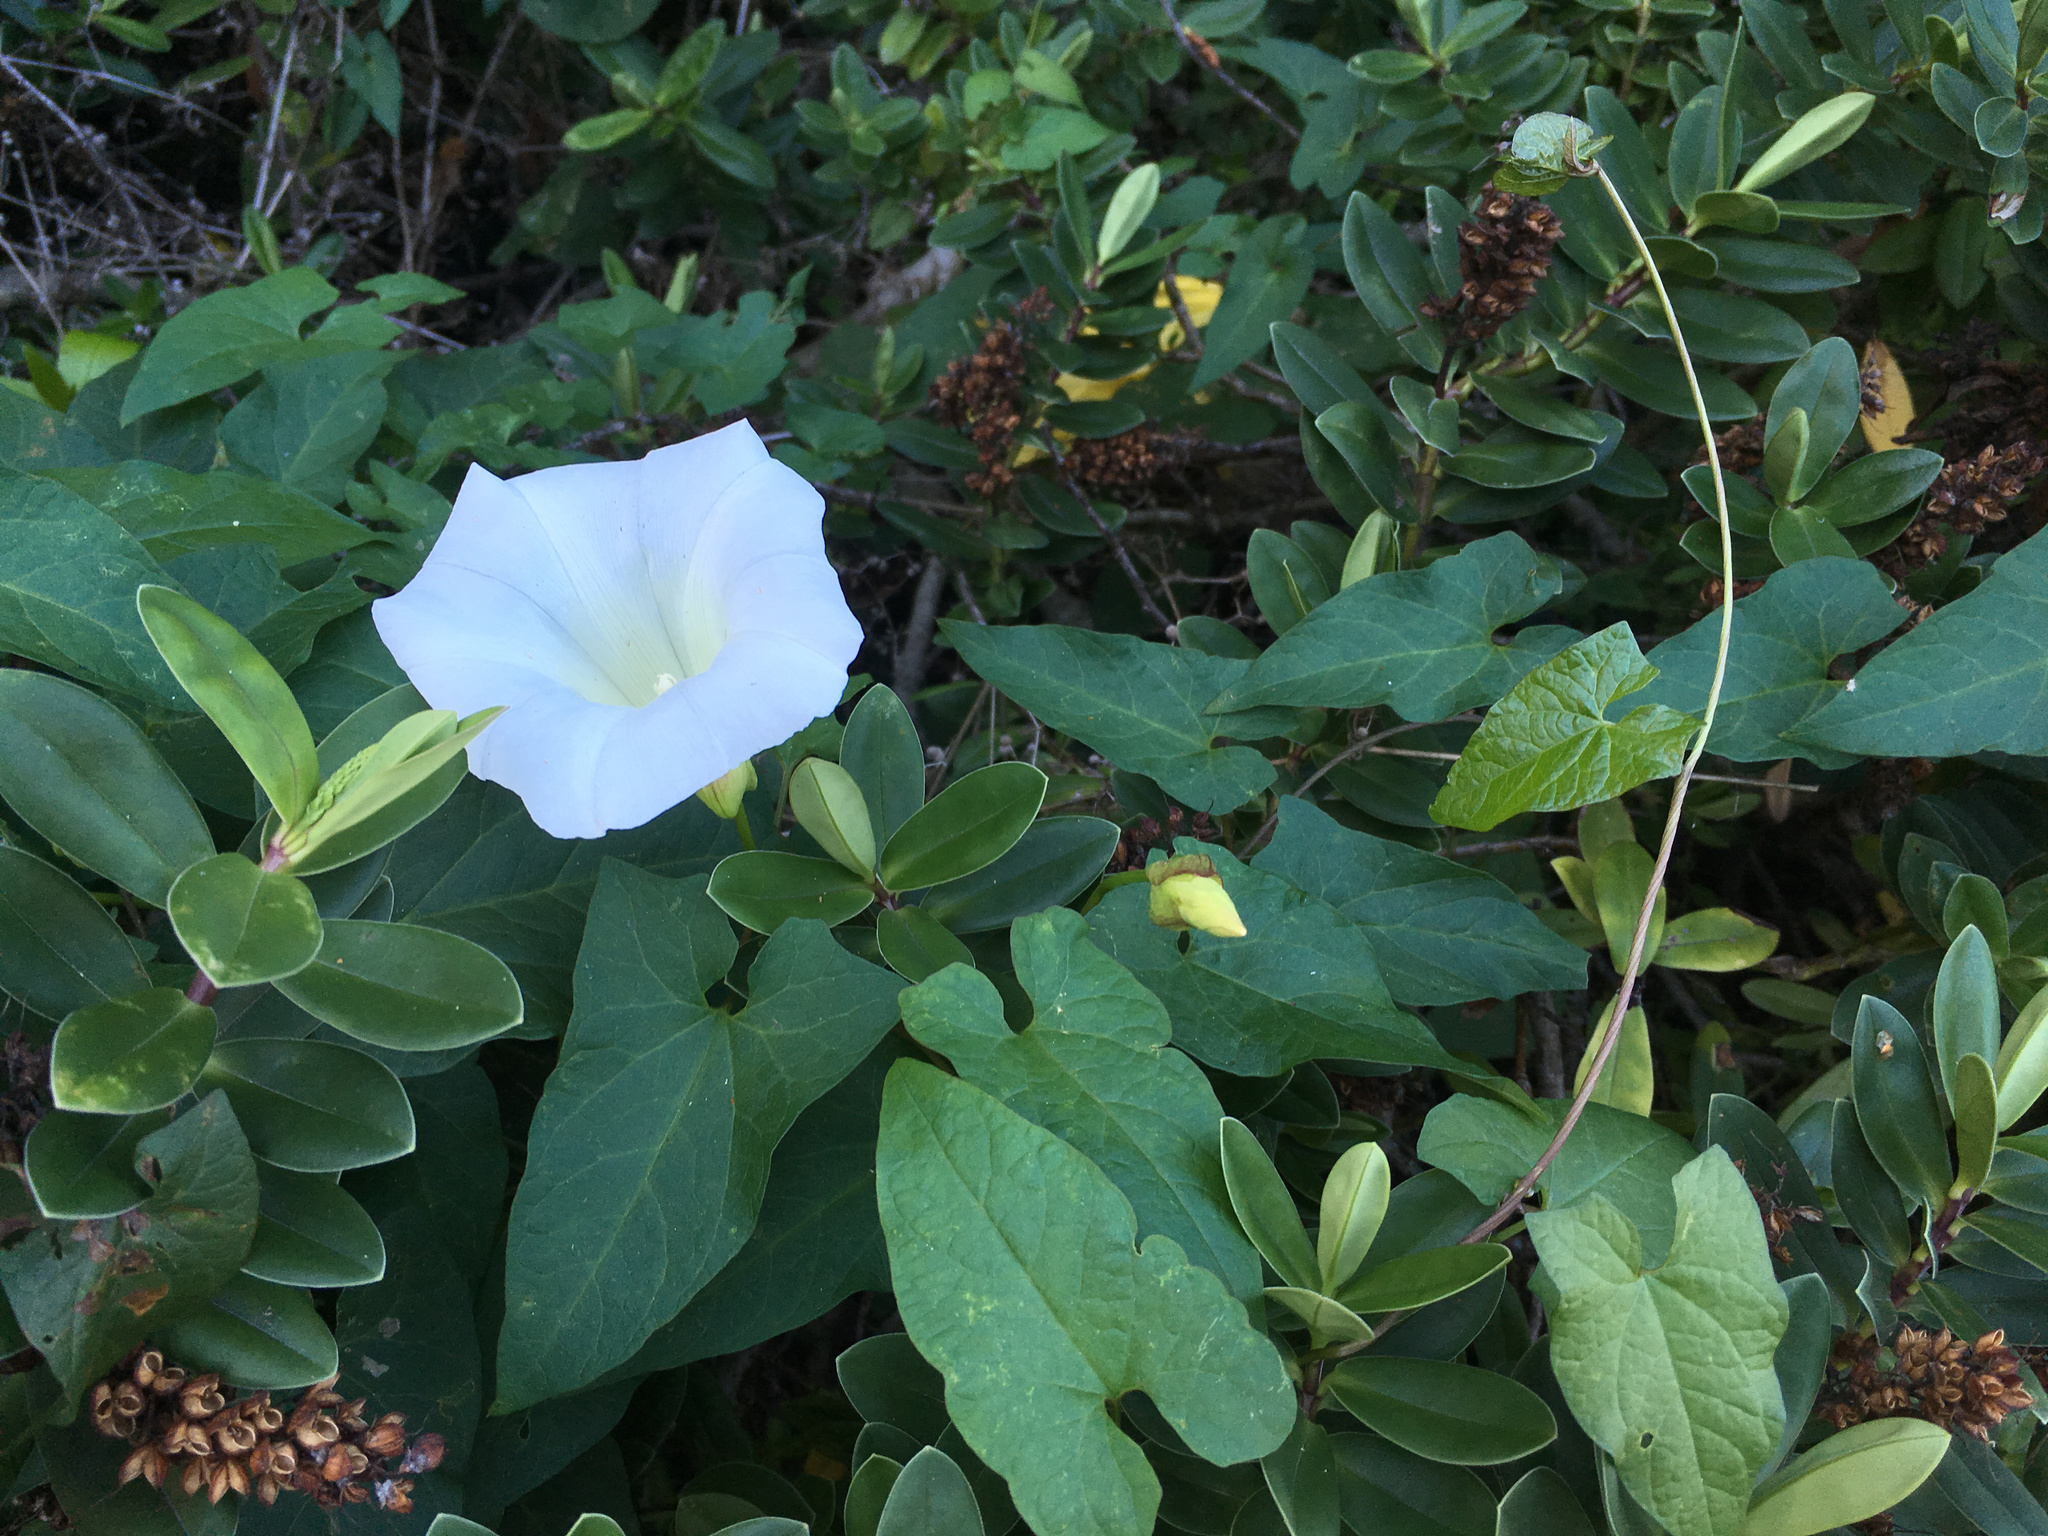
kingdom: Plantae
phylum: Tracheophyta
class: Magnoliopsida
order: Solanales
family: Convolvulaceae
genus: Calystegia
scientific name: Calystegia silvatica
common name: Large bindweed
